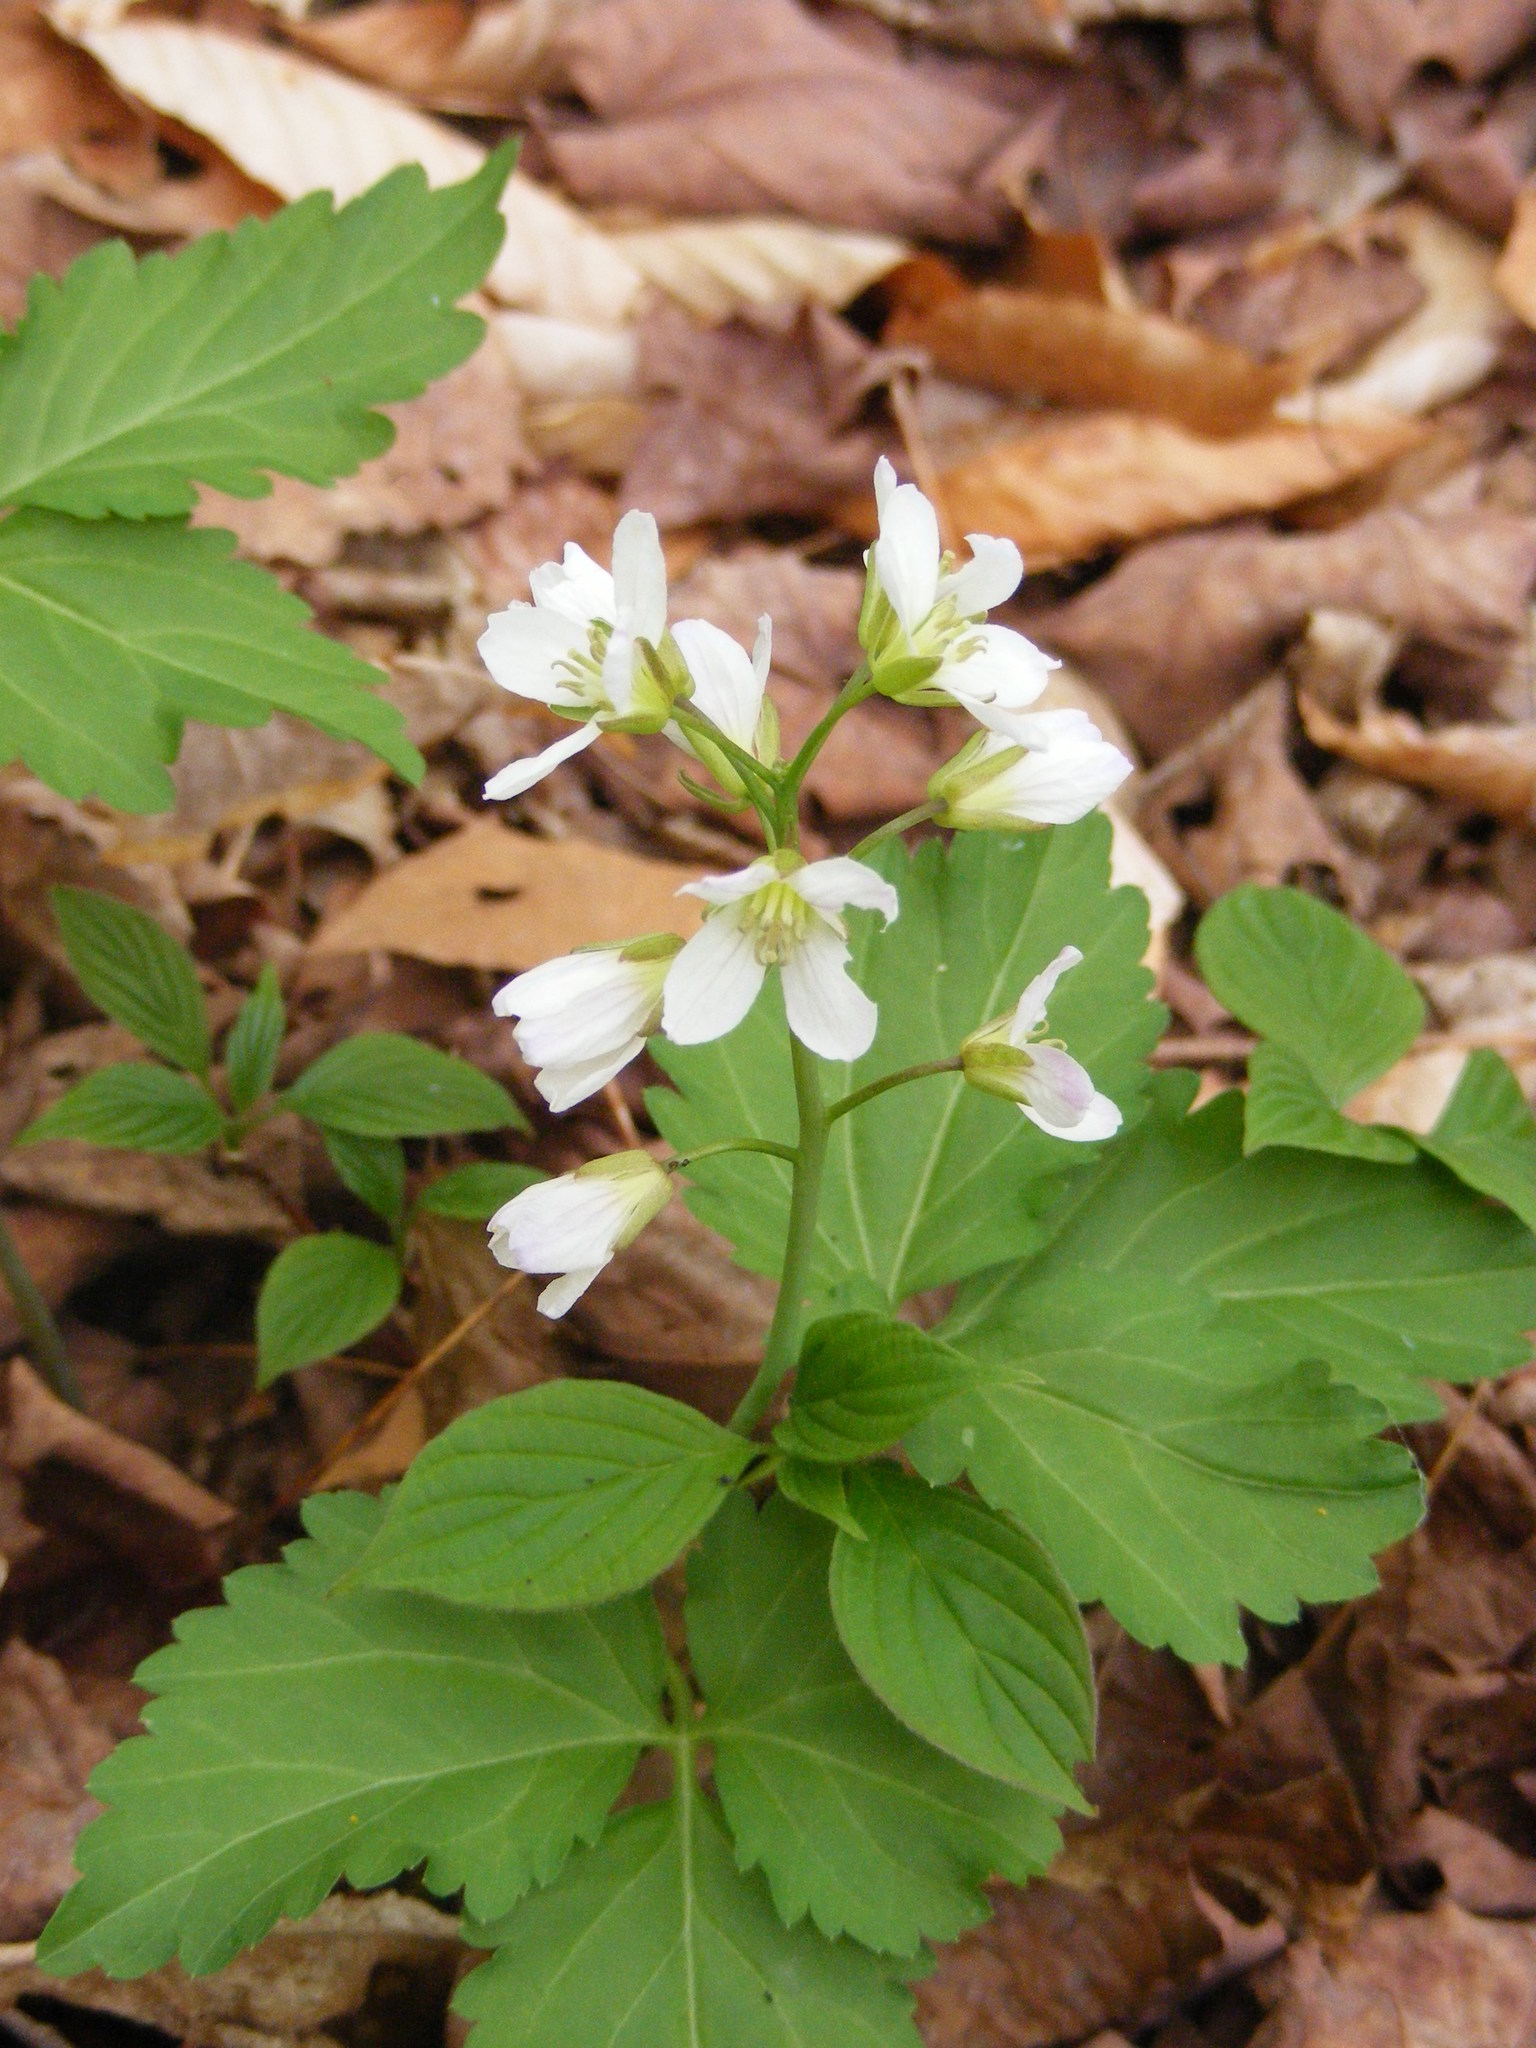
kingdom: Plantae
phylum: Tracheophyta
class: Magnoliopsida
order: Brassicales
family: Brassicaceae
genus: Cardamine
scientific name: Cardamine diphylla
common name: Broad-leaved toothwort
